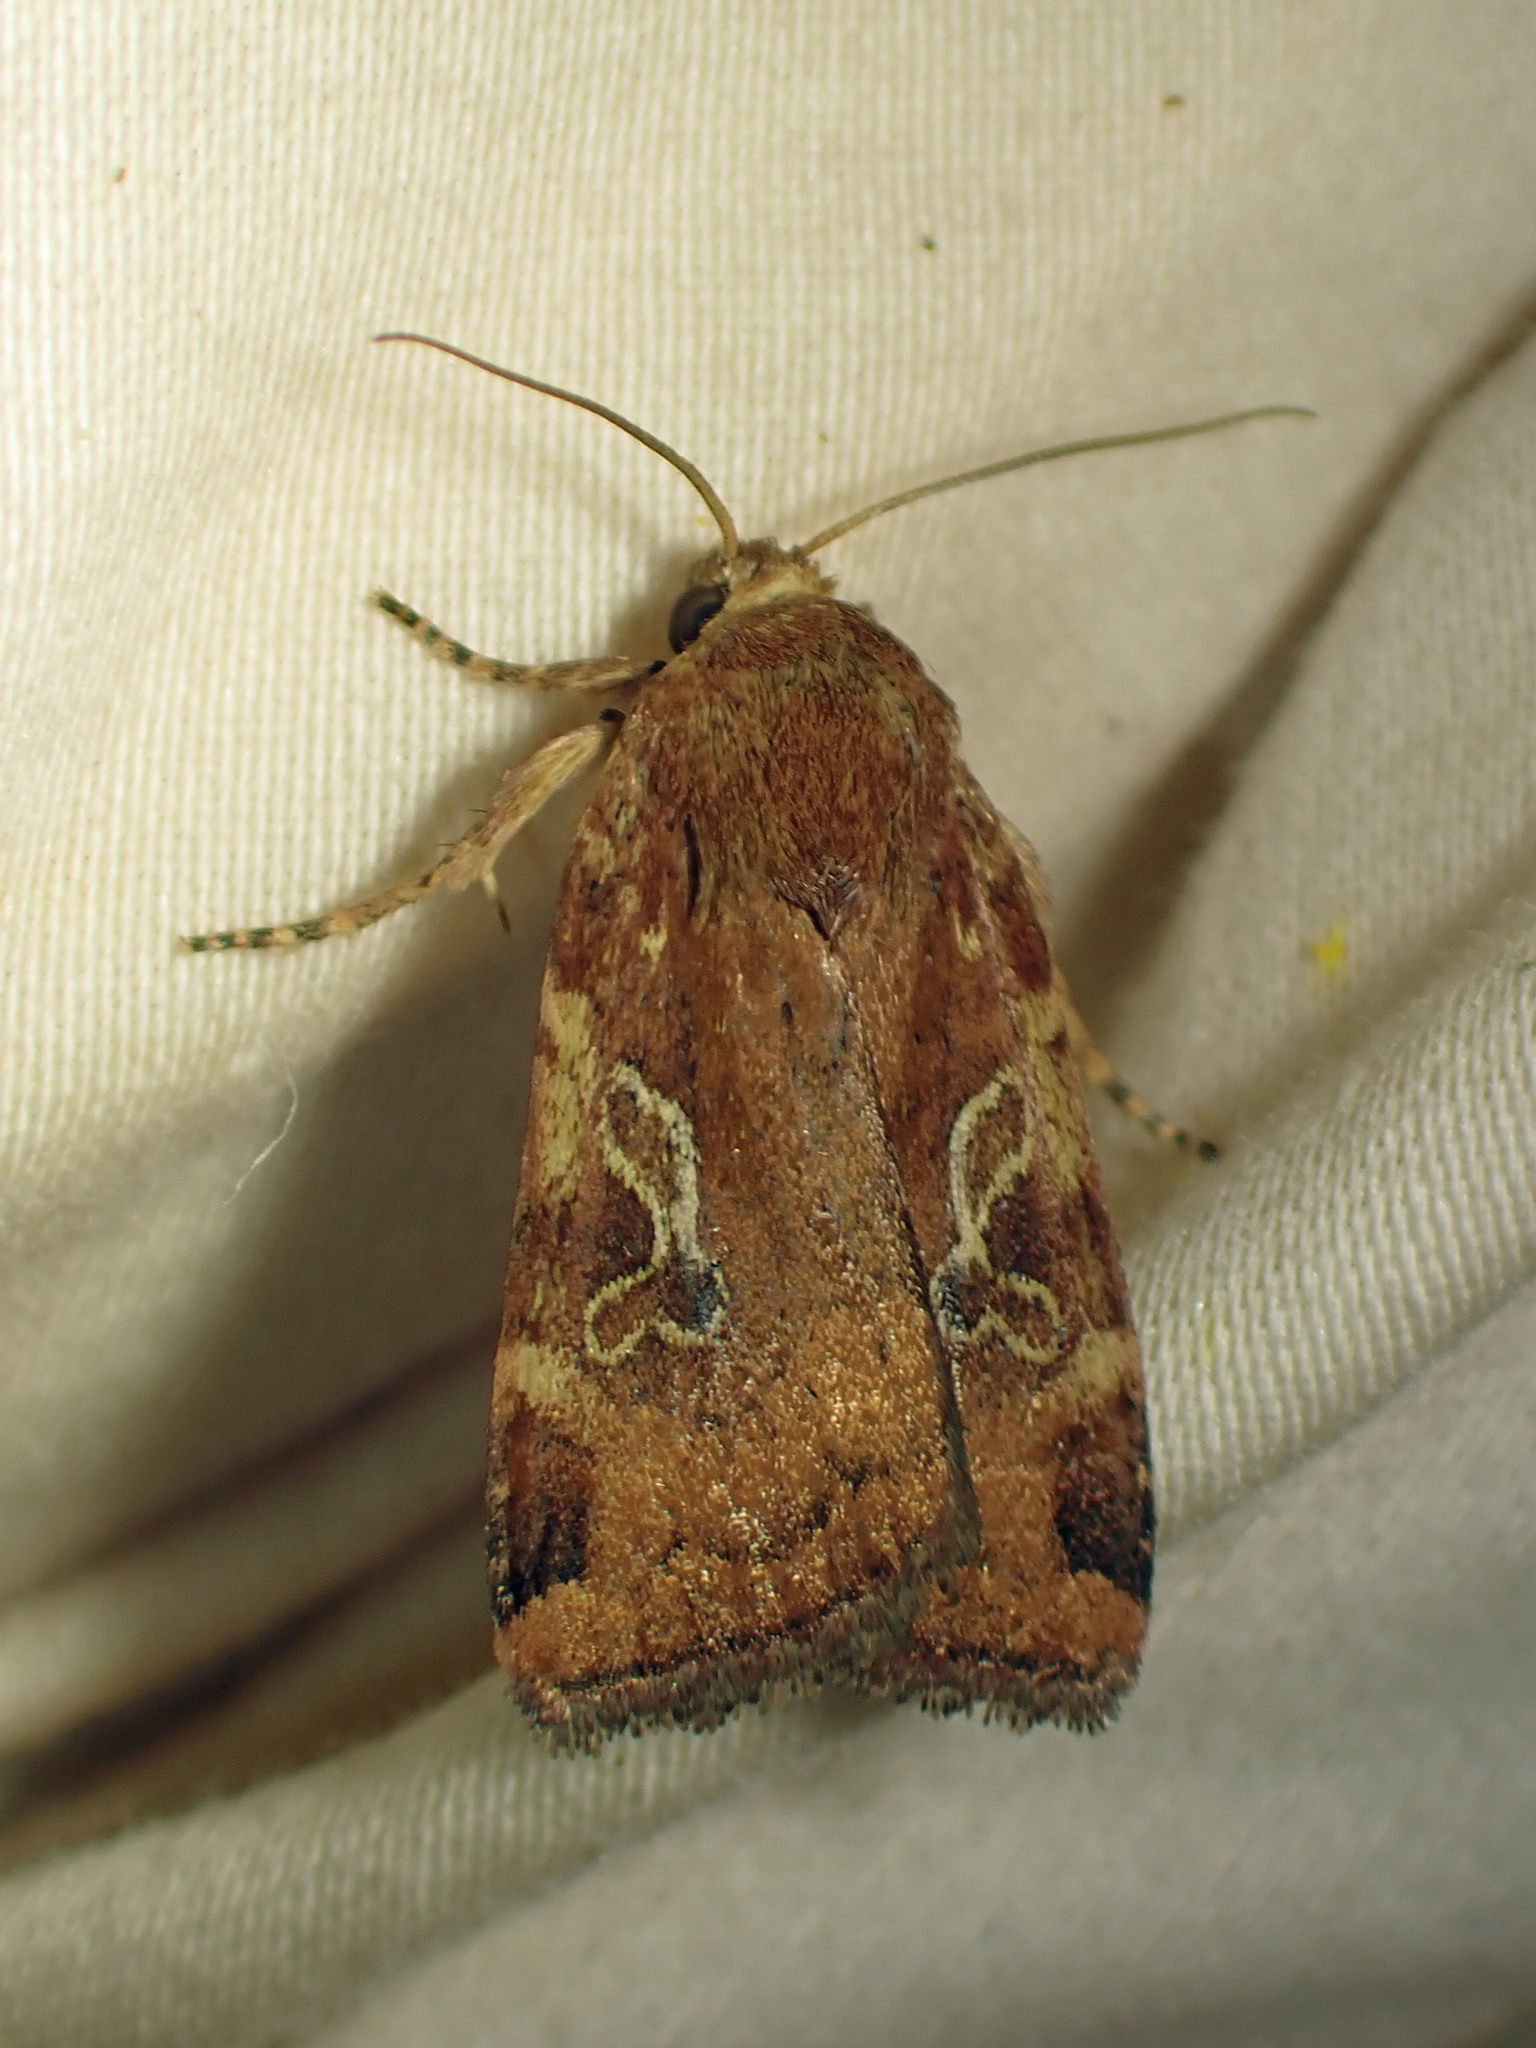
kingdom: Animalia
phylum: Arthropoda
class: Insecta
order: Lepidoptera
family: Noctuidae
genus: Cryptocala
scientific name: Cryptocala acadiensis
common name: Catocaline dart
